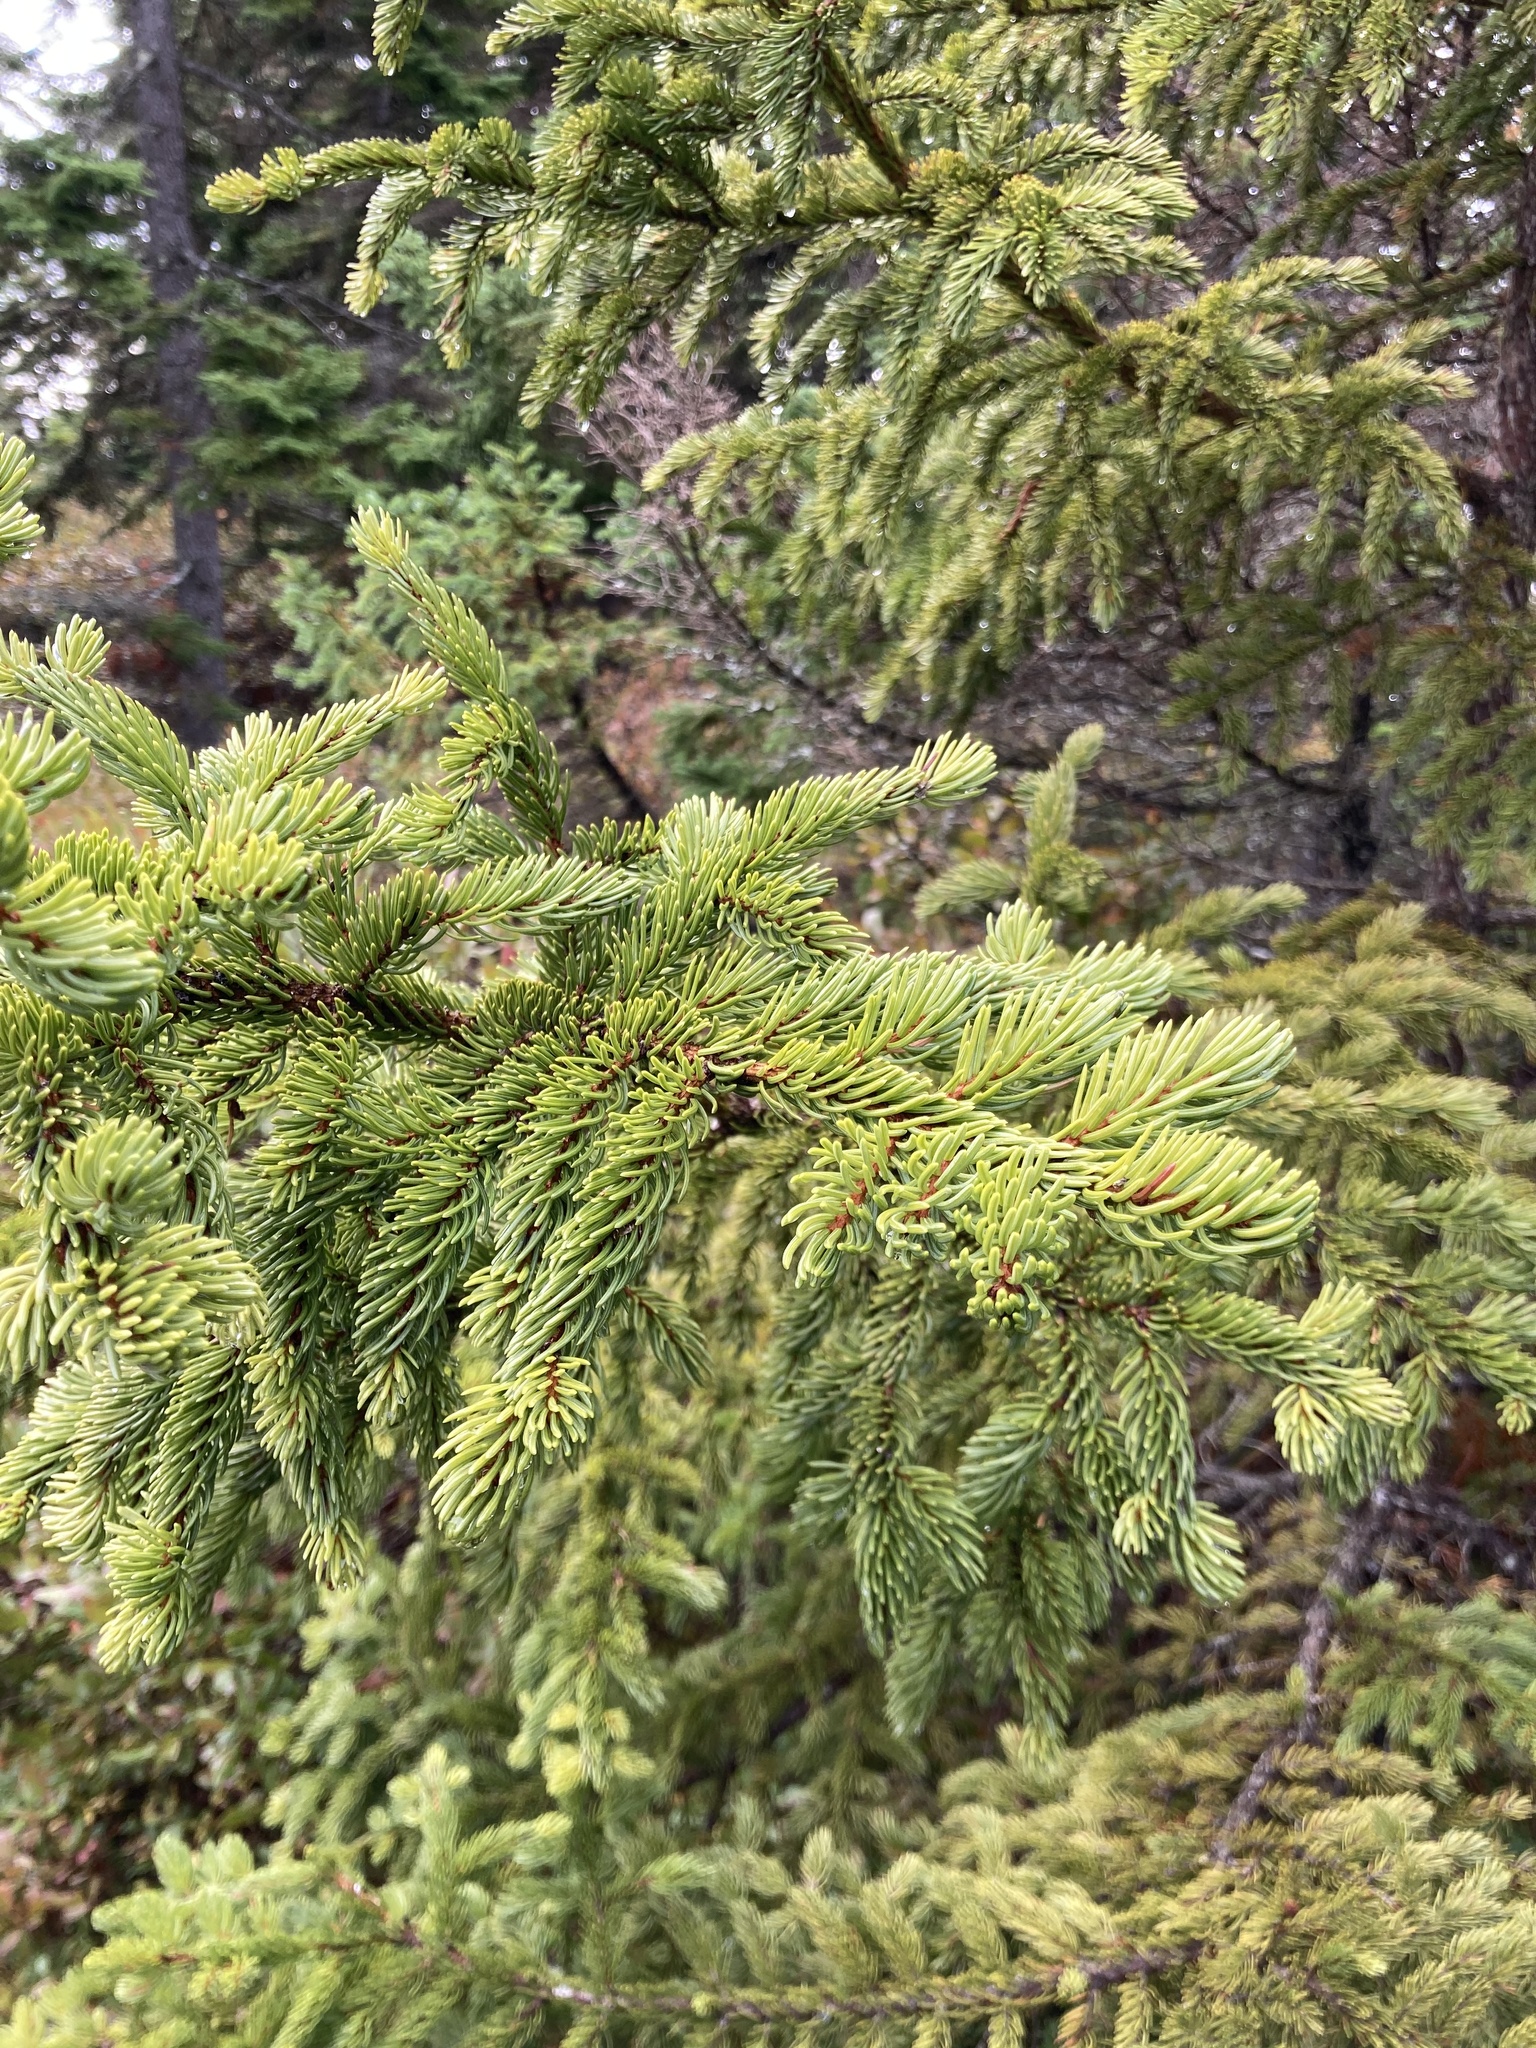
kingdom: Plantae
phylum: Tracheophyta
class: Pinopsida
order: Pinales
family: Pinaceae
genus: Picea
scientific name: Picea glauca
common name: White spruce
